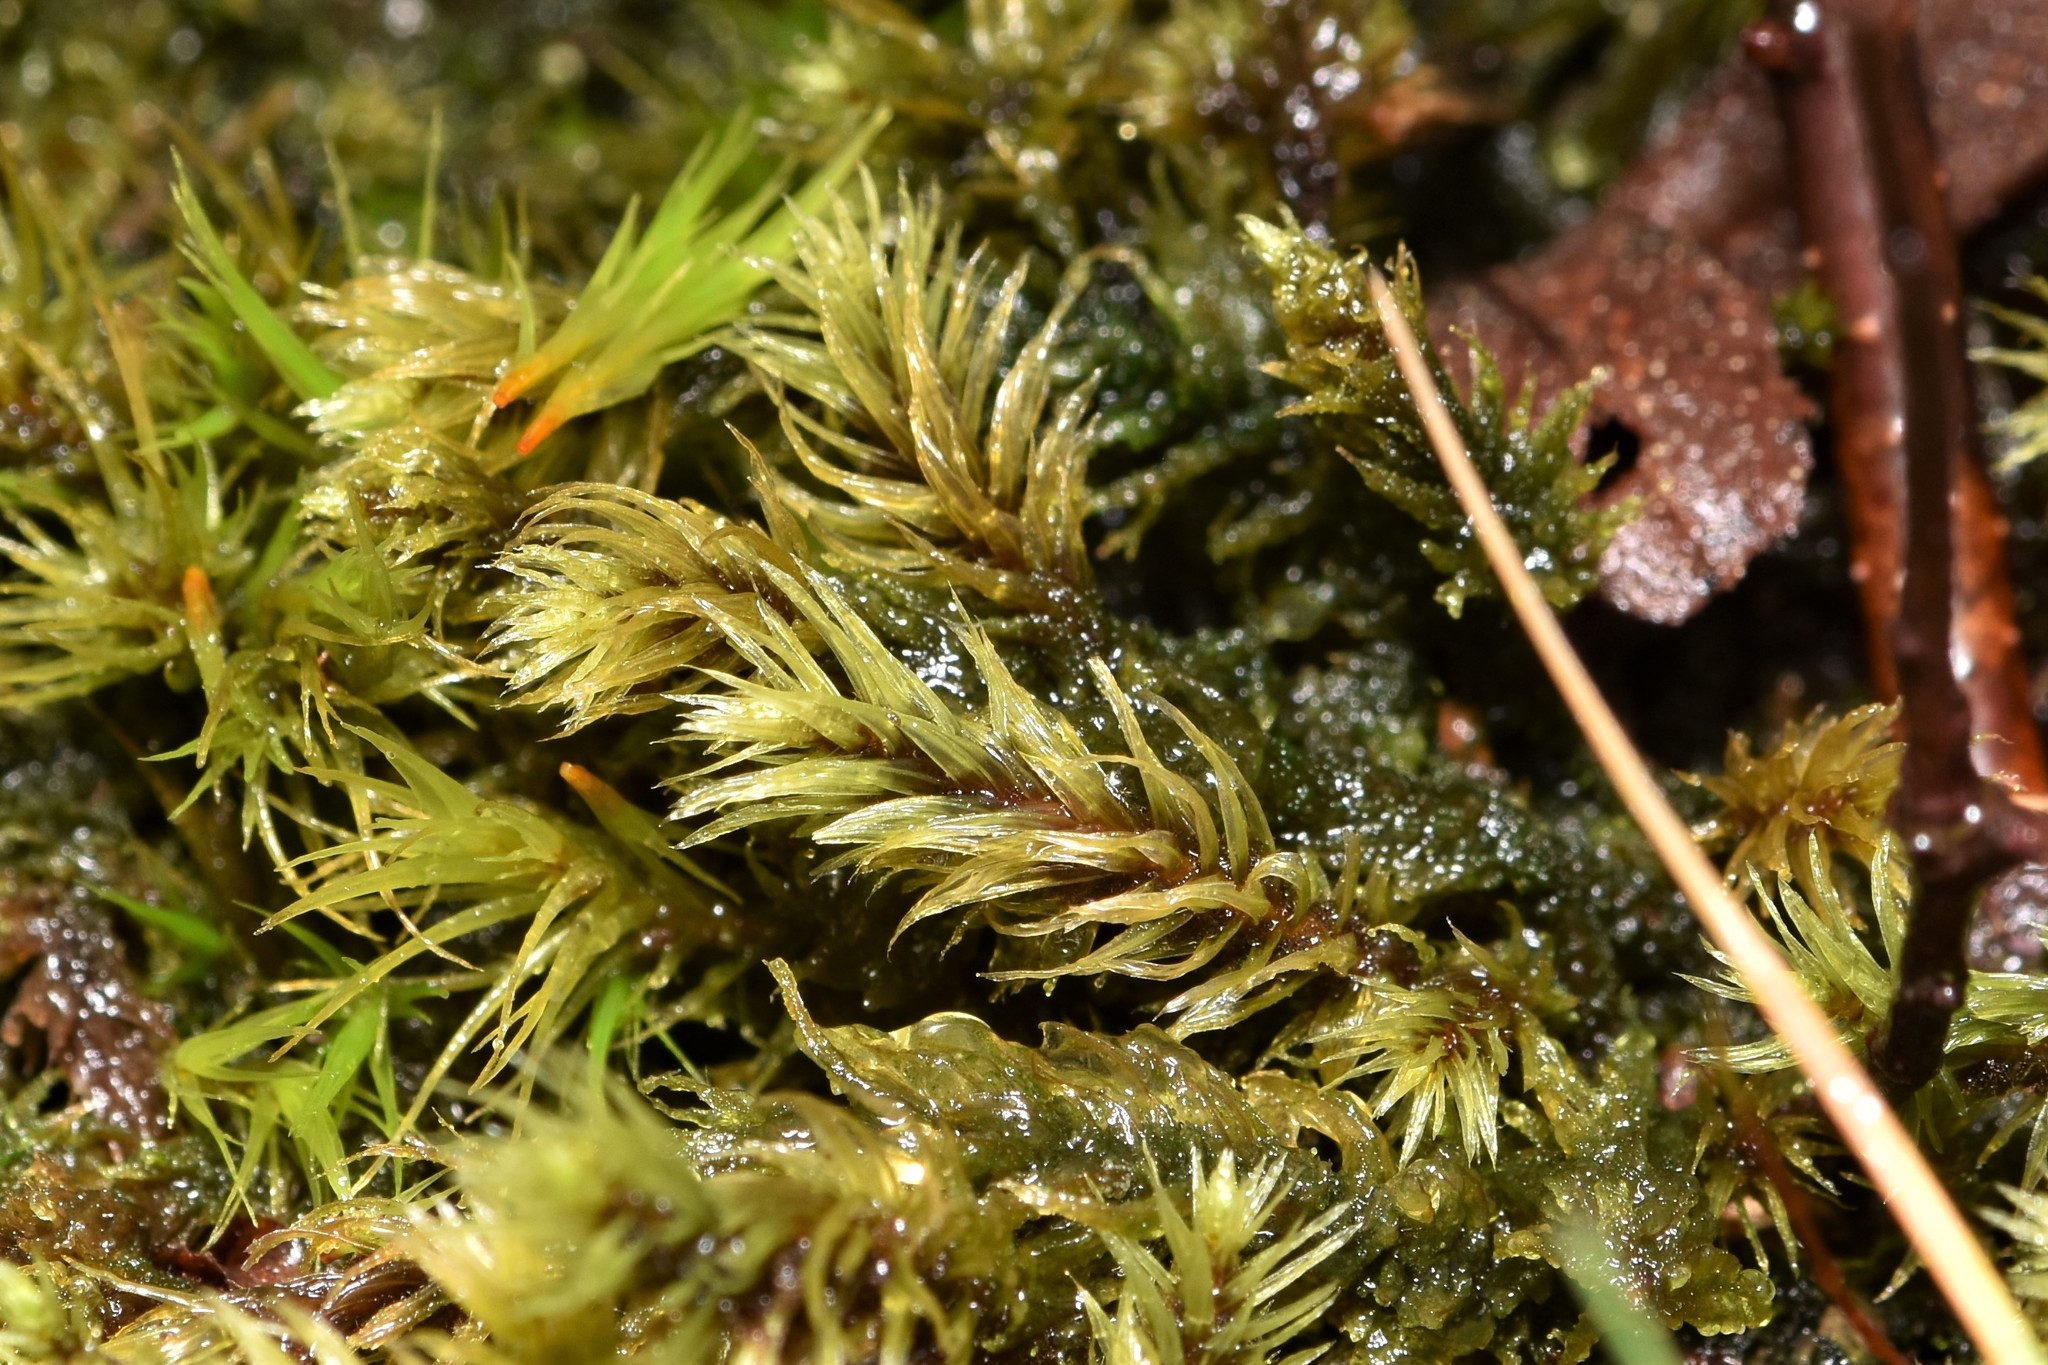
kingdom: Plantae
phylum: Bryophyta
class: Bryopsida
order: Aulacomniales
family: Aulacomniaceae
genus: Aulacomnium
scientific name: Aulacomnium palustre
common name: Bog groove-moss
